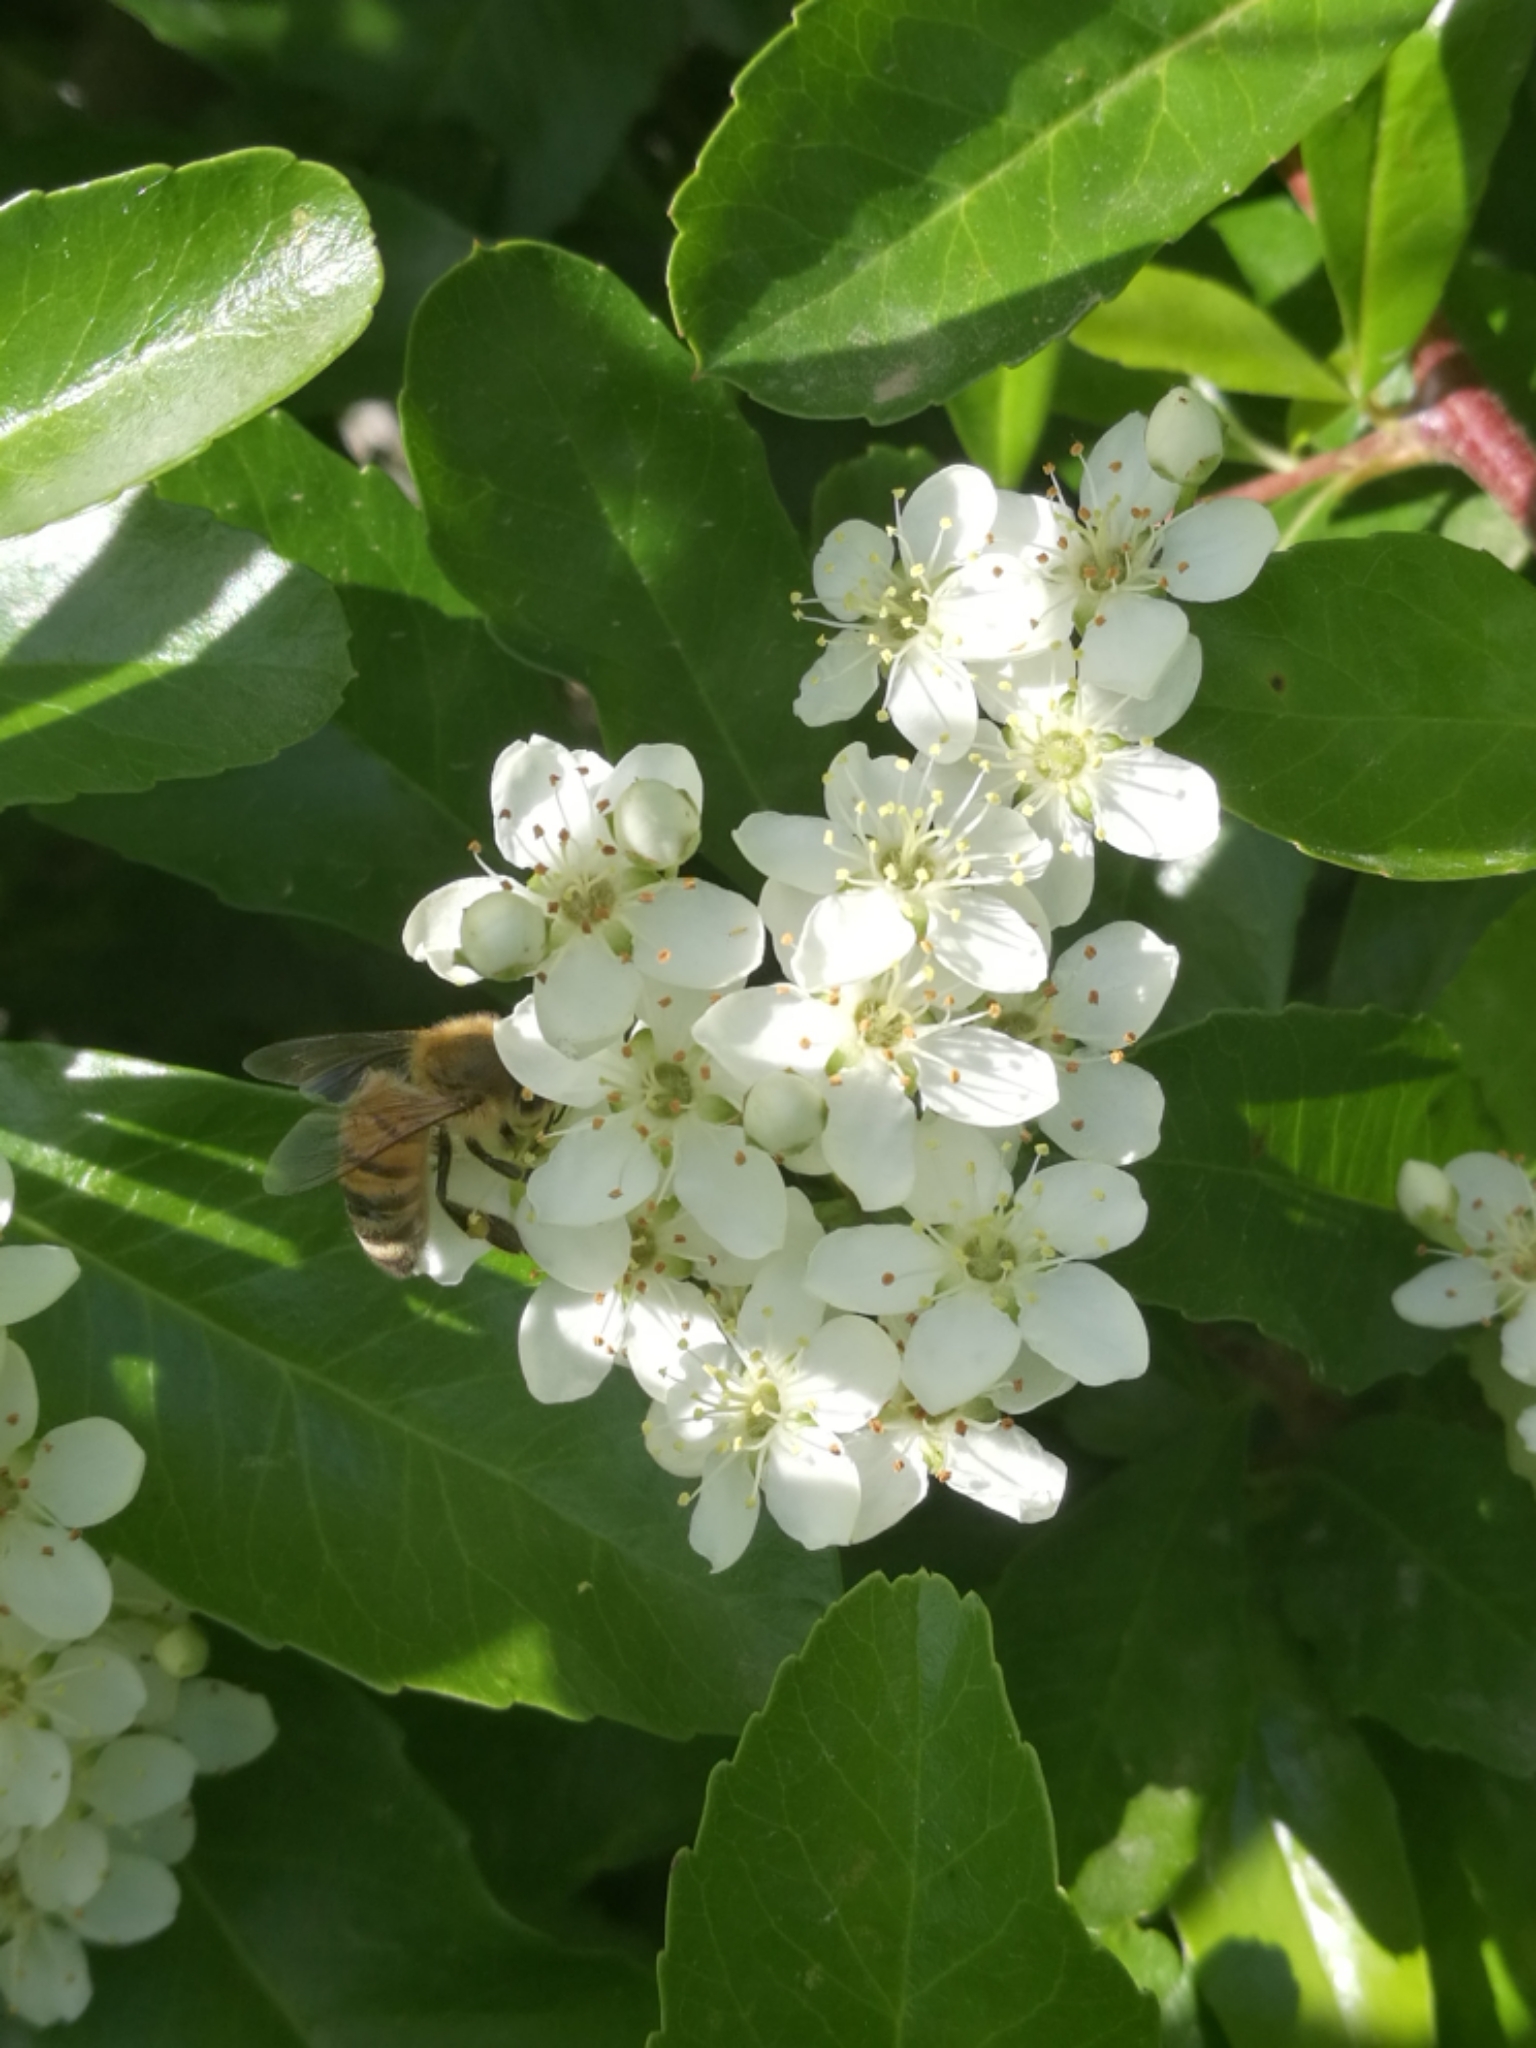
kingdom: Animalia
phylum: Arthropoda
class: Insecta
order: Hymenoptera
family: Apidae
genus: Apis
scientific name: Apis mellifera
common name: Honey bee
